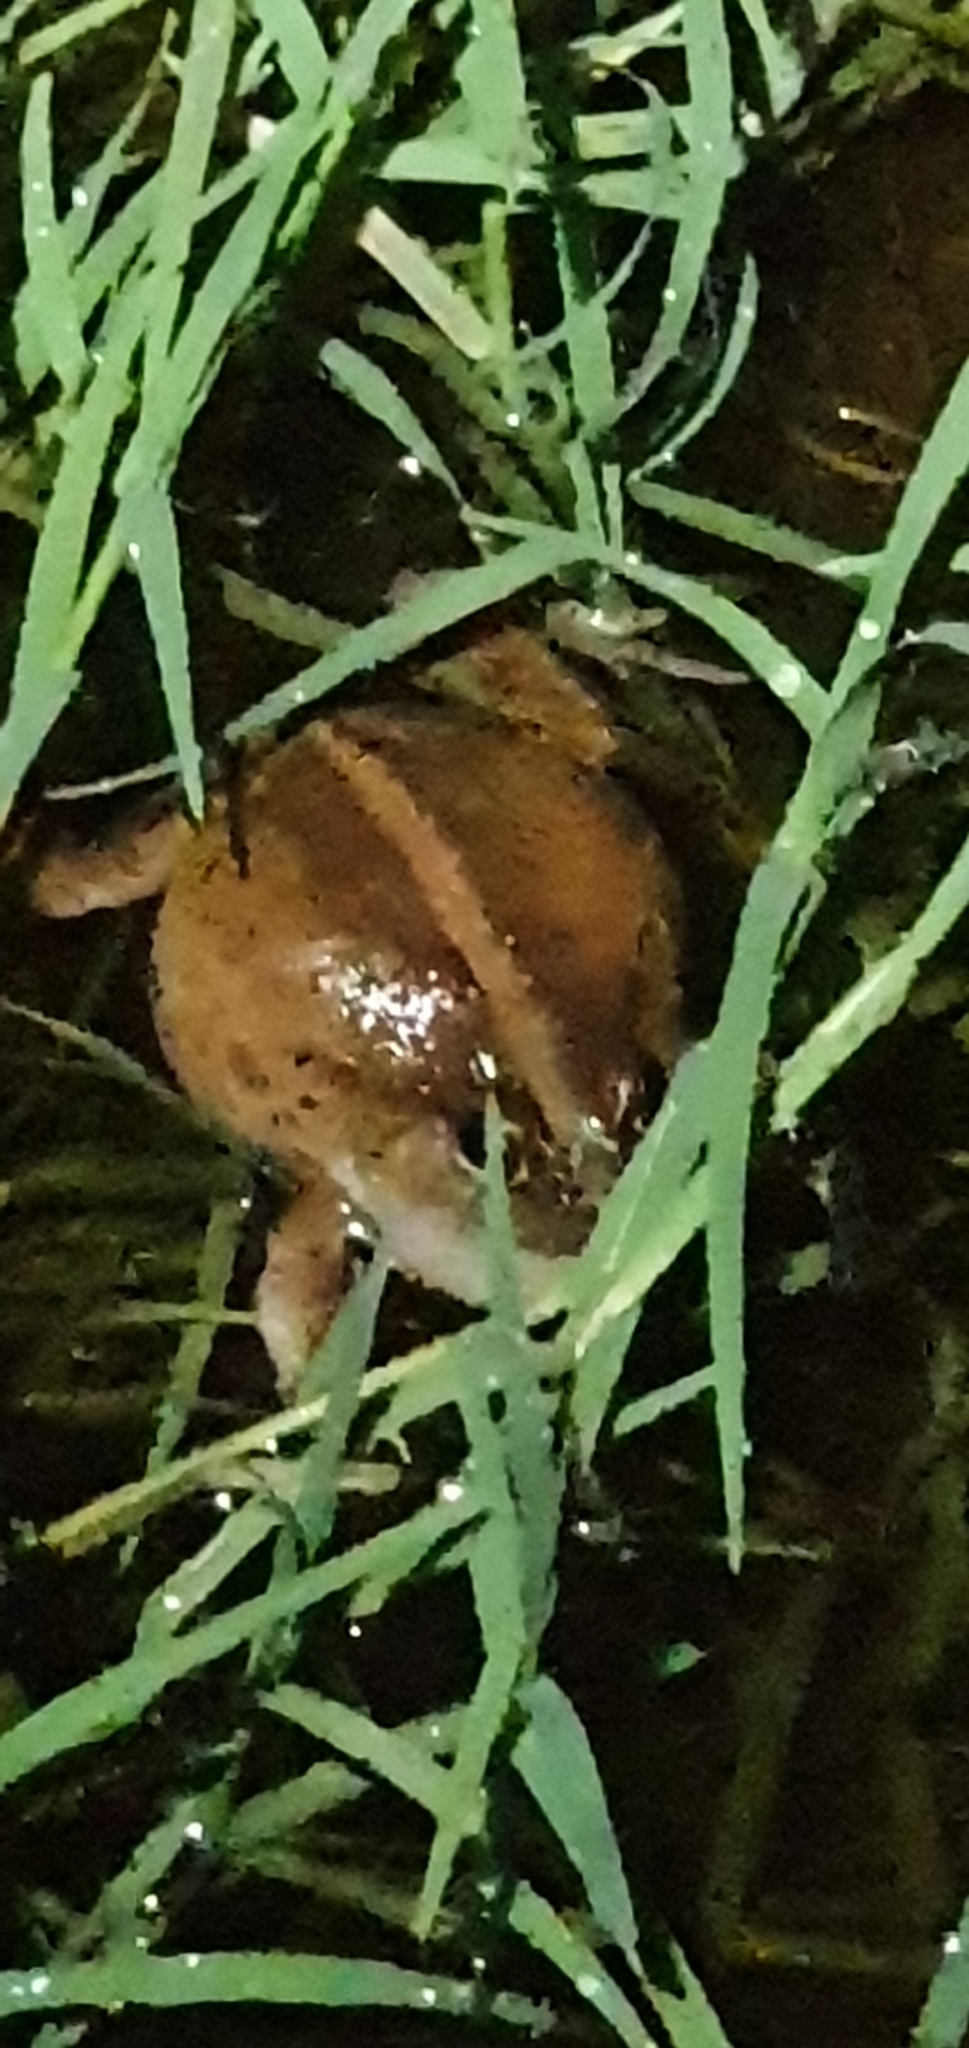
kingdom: Animalia
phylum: Chordata
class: Amphibia
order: Anura
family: Limnodynastidae
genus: Platyplectrum
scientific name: Platyplectrum ornatum
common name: Ornate burrowing frog
